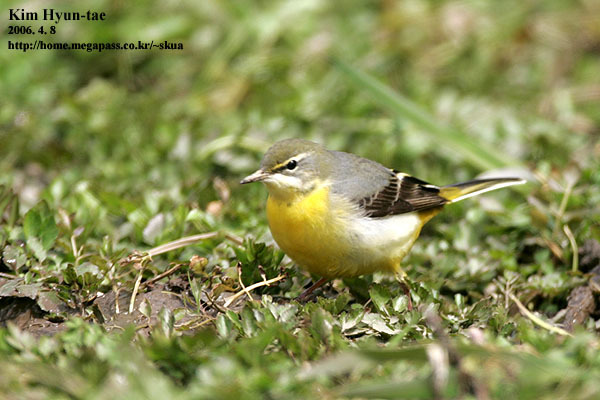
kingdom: Animalia
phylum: Chordata
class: Aves
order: Passeriformes
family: Motacillidae
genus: Motacilla
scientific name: Motacilla cinerea
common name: Grey wagtail
